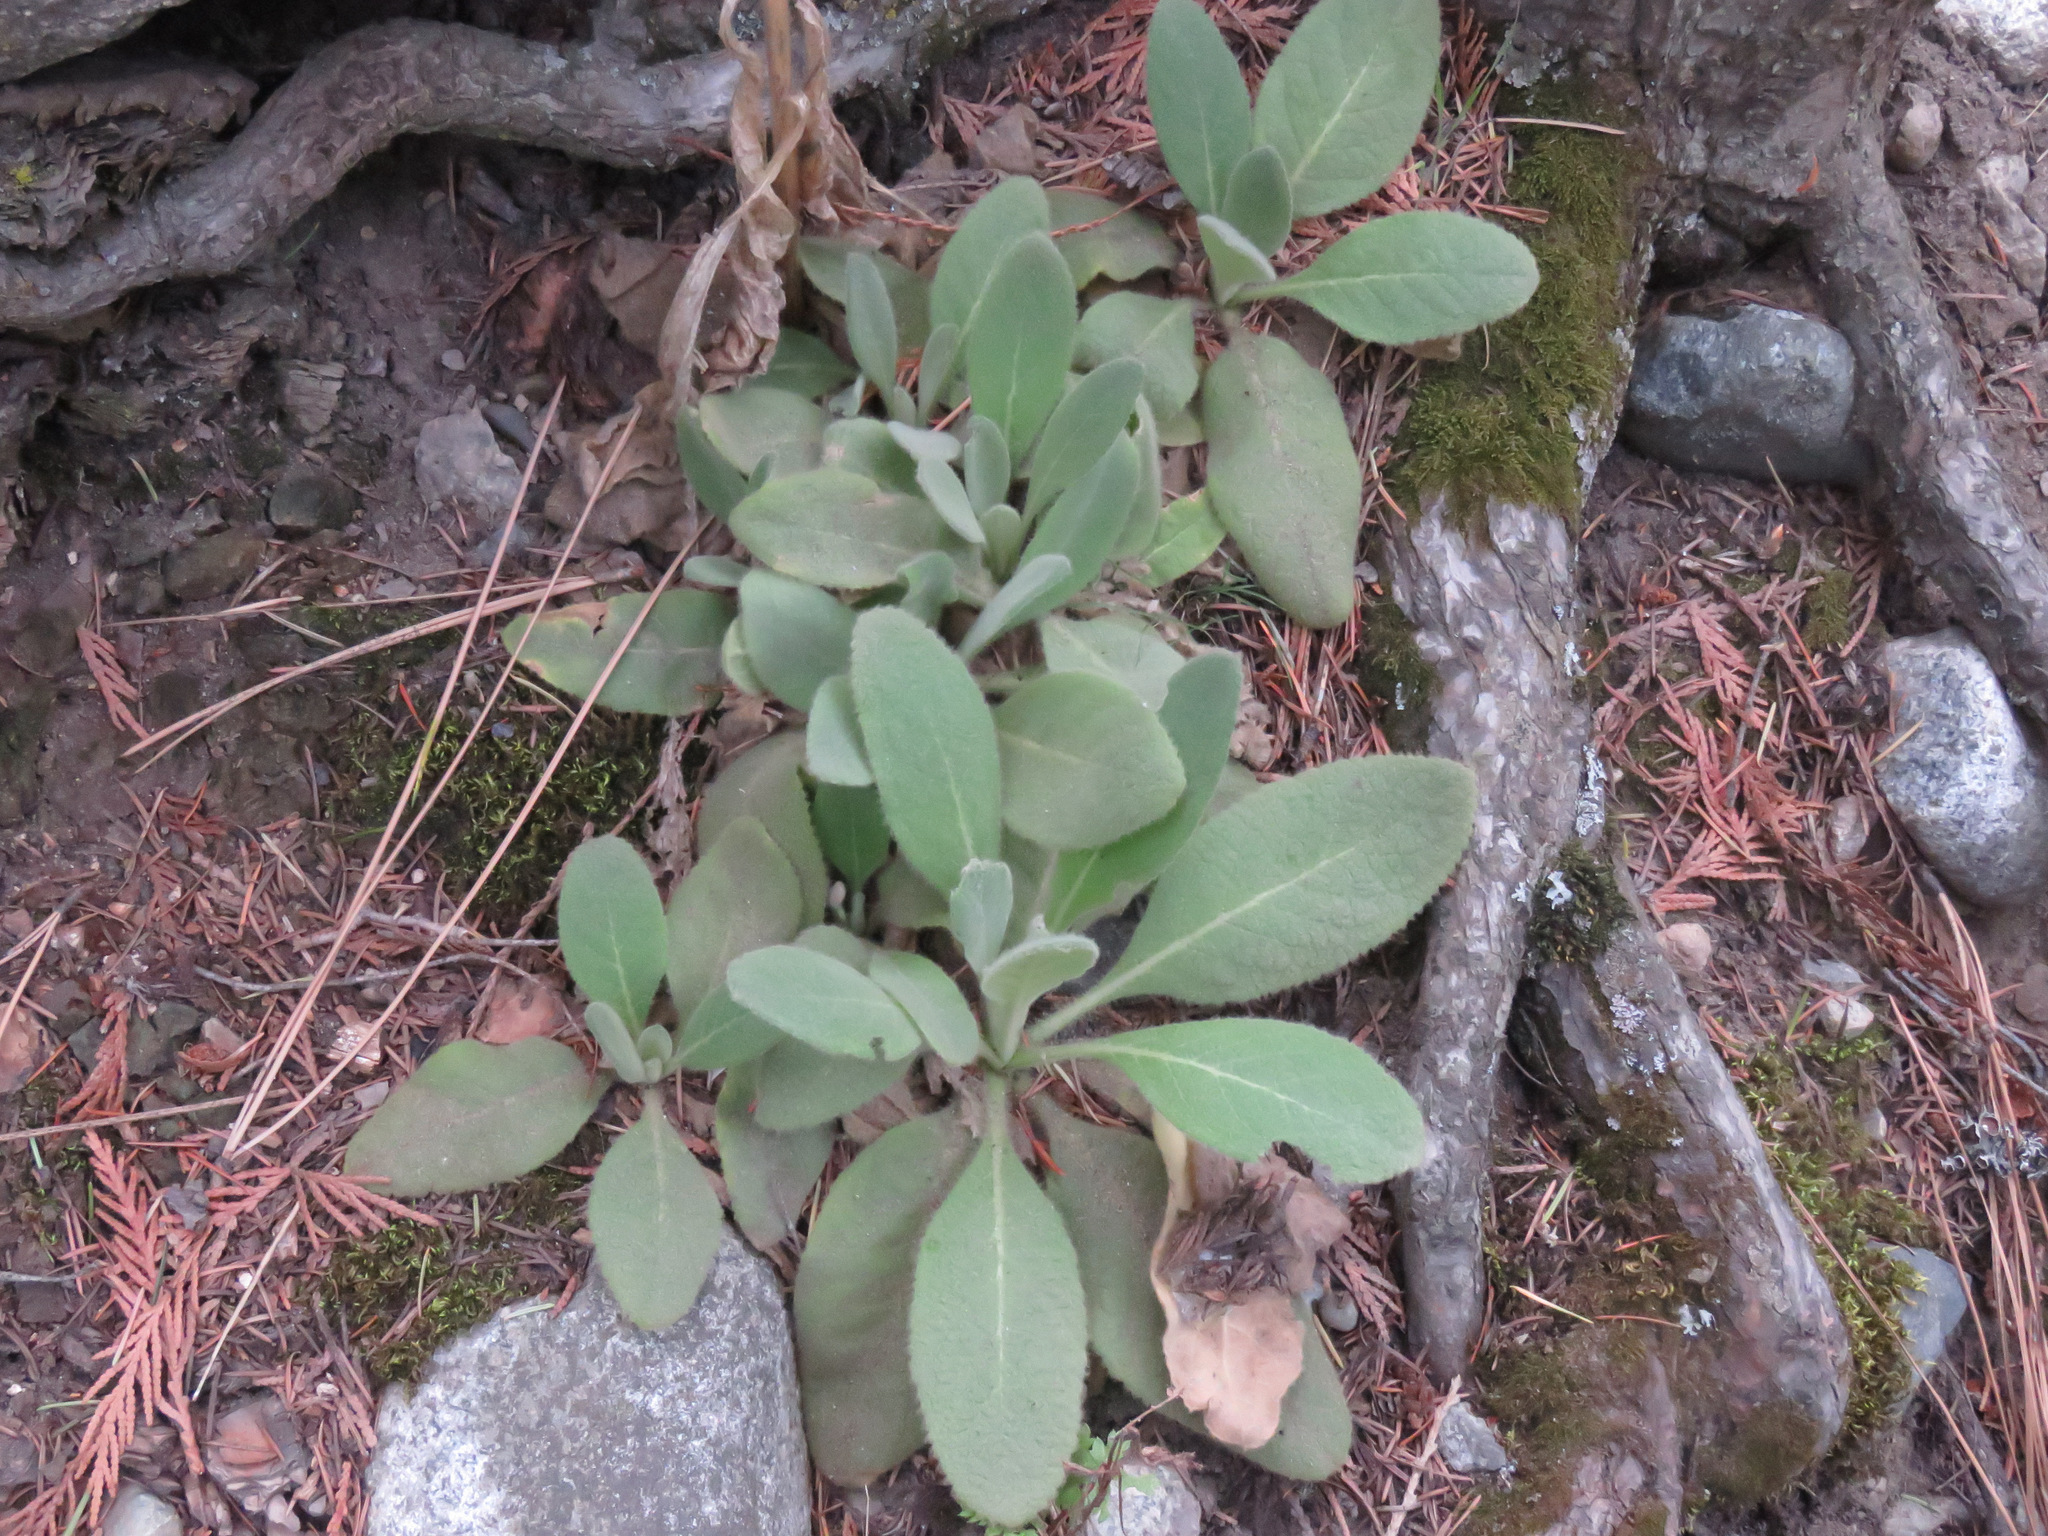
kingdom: Plantae
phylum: Tracheophyta
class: Magnoliopsida
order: Lamiales
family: Scrophulariaceae
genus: Verbascum
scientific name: Verbascum thapsus
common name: Common mullein
